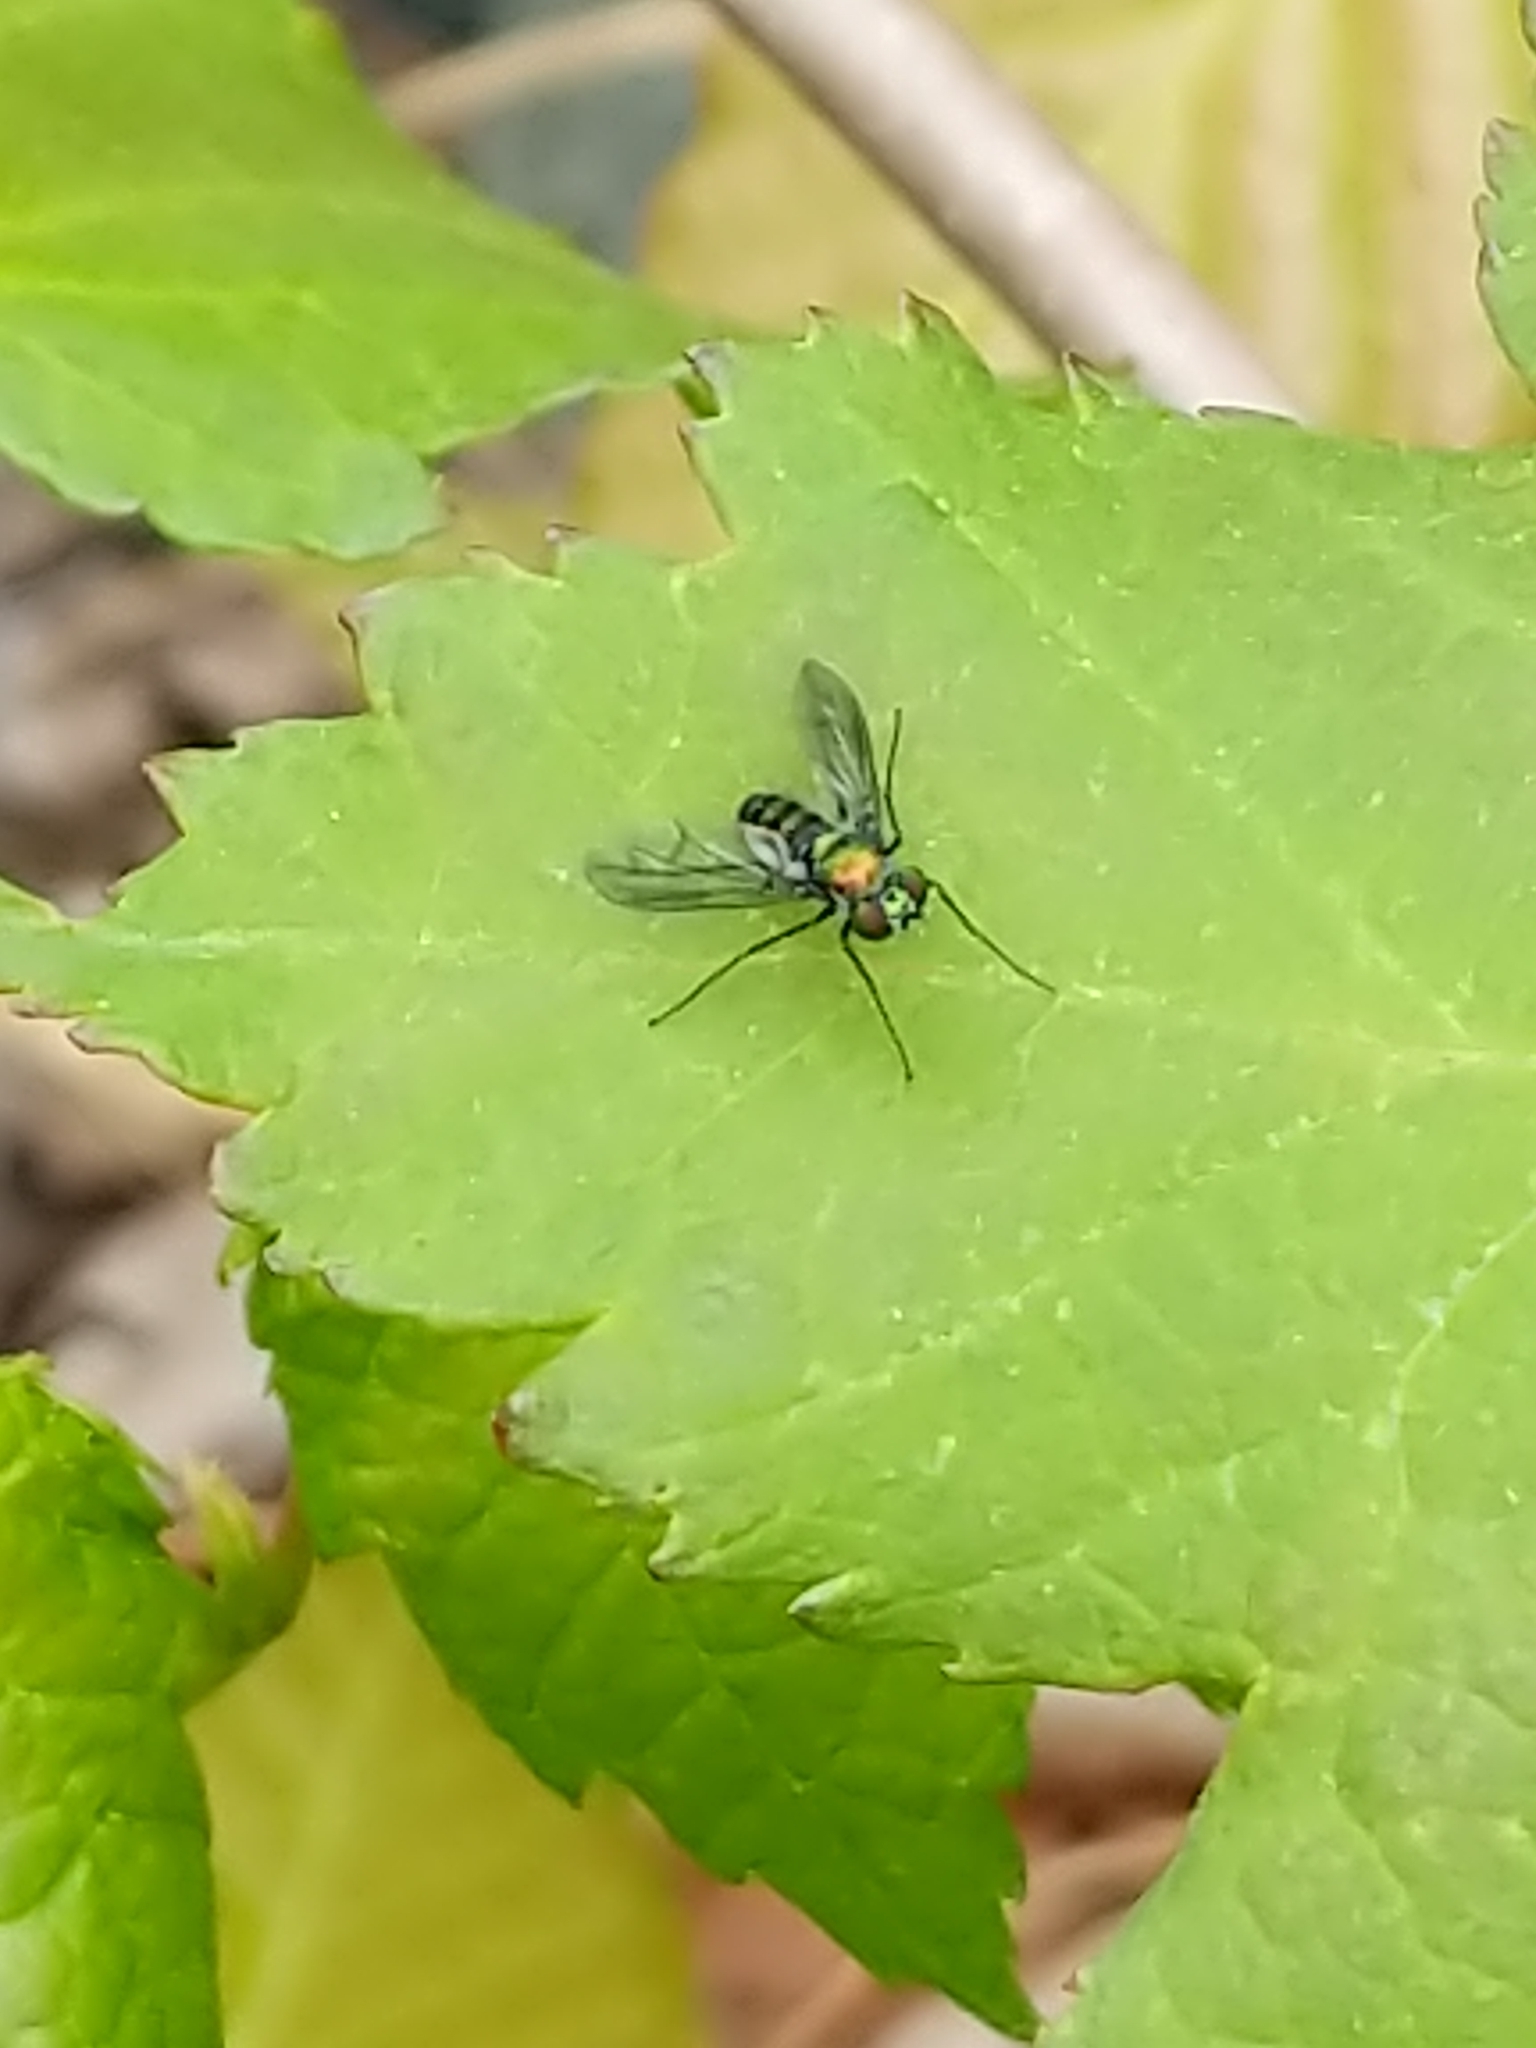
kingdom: Animalia
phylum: Arthropoda
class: Insecta
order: Diptera
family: Dolichopodidae
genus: Condylostylus
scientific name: Condylostylus patibulatus
